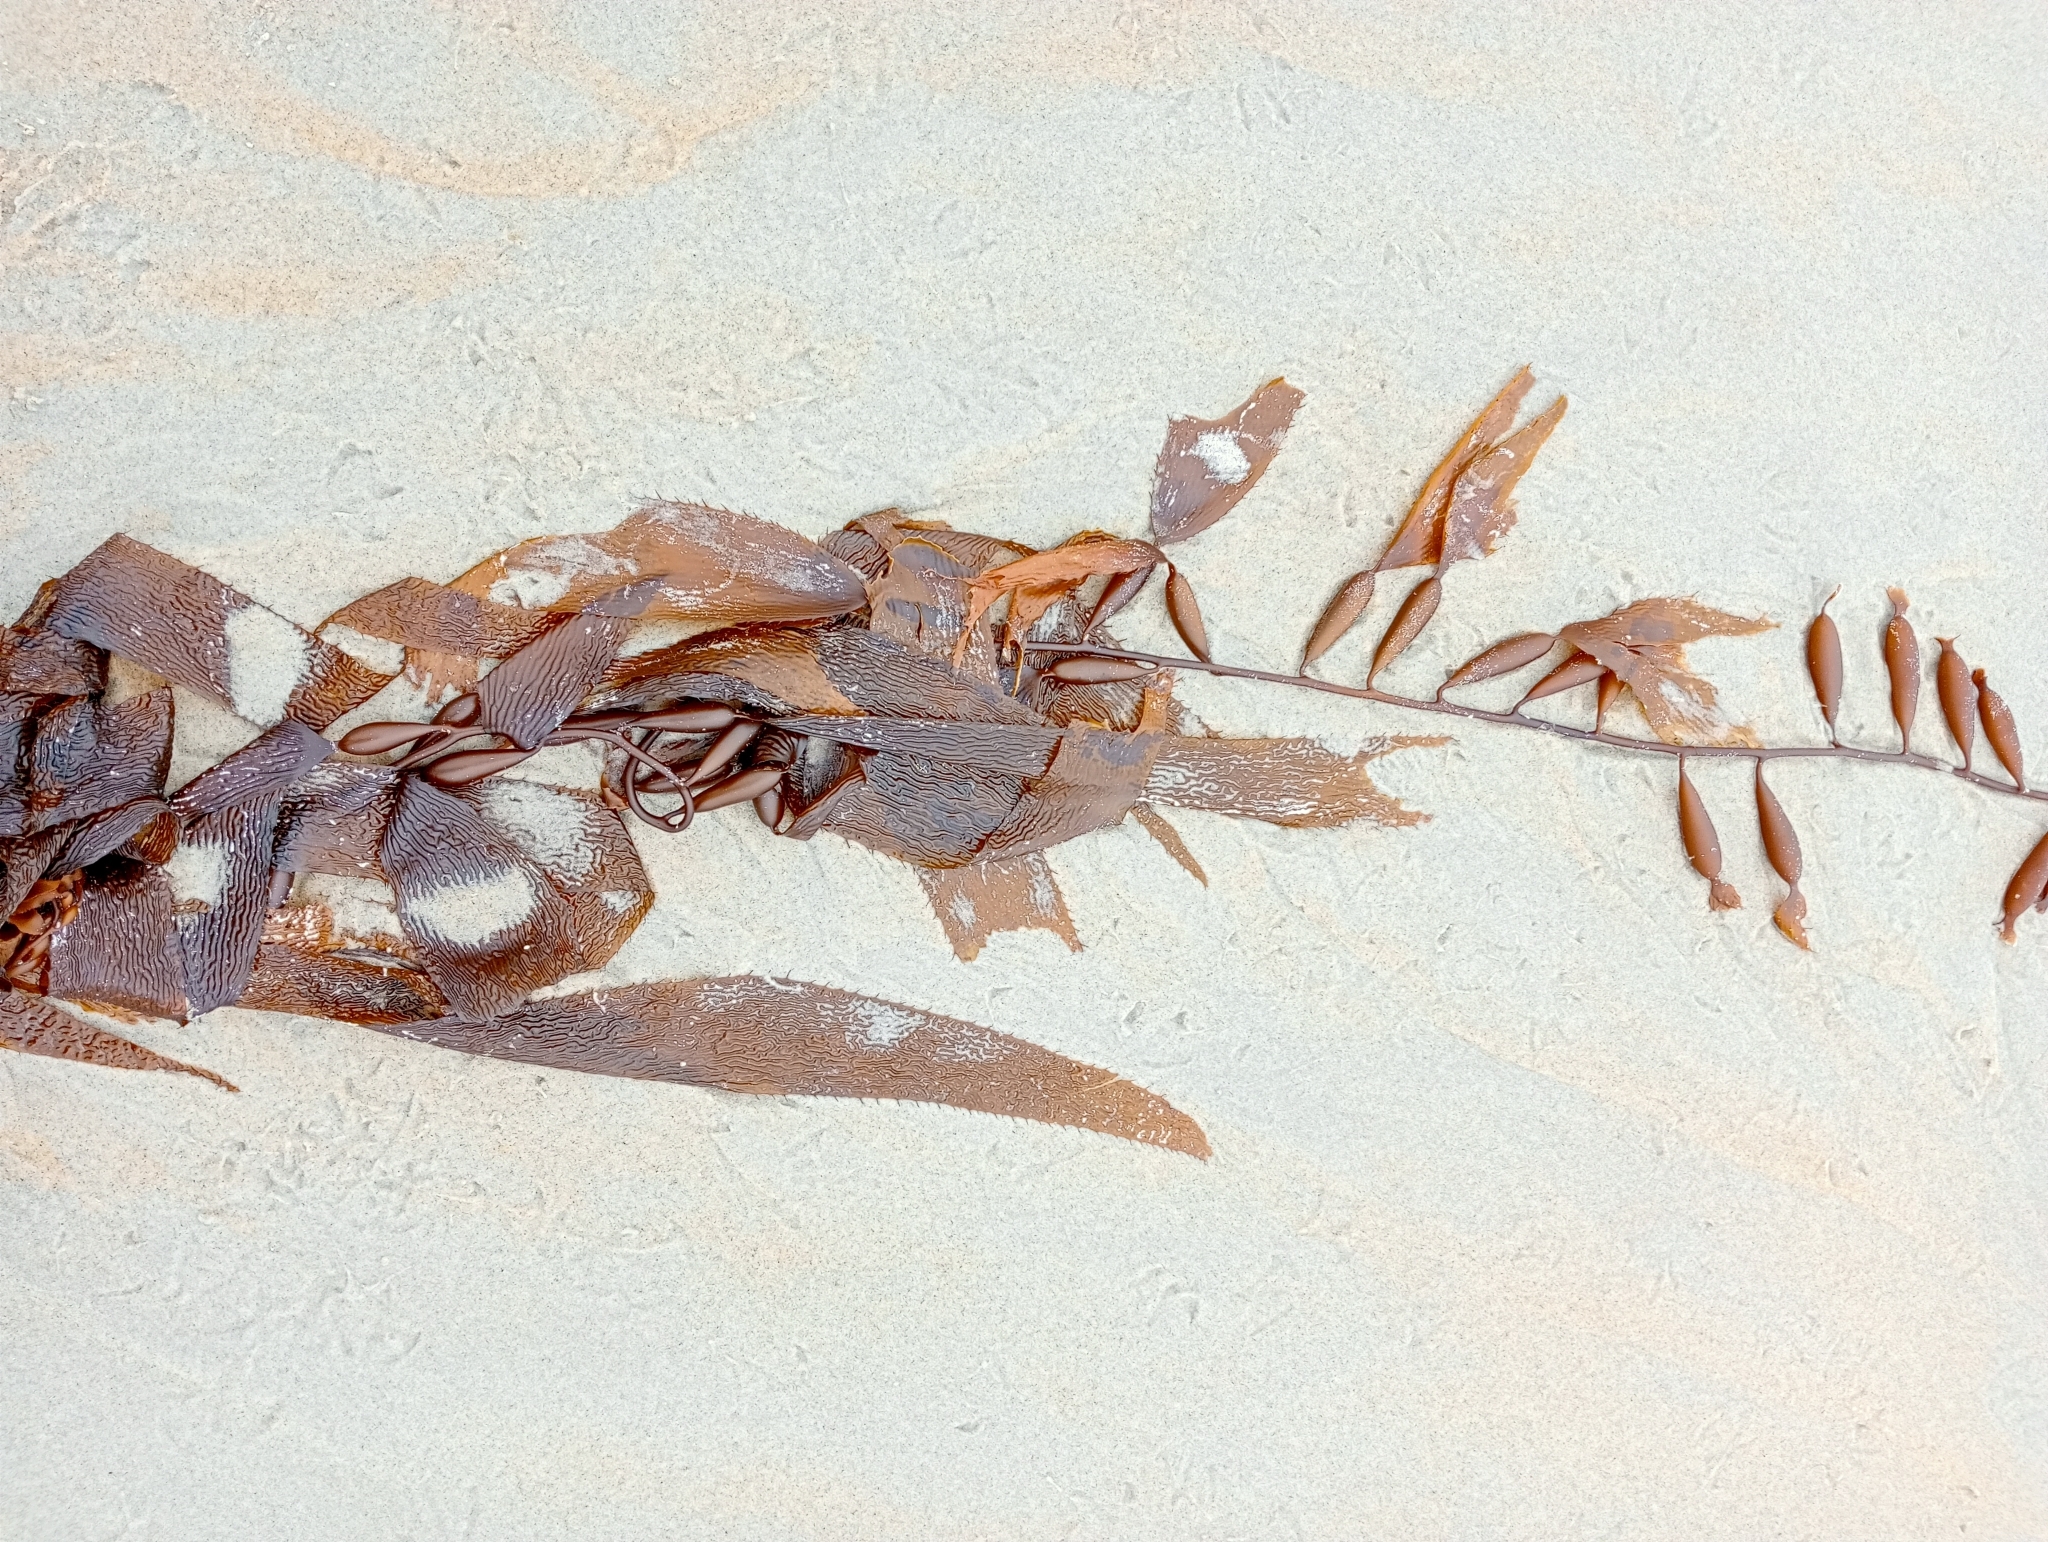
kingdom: Chromista
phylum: Ochrophyta
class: Phaeophyceae
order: Laminariales
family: Laminariaceae
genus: Macrocystis
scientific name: Macrocystis pyrifera
